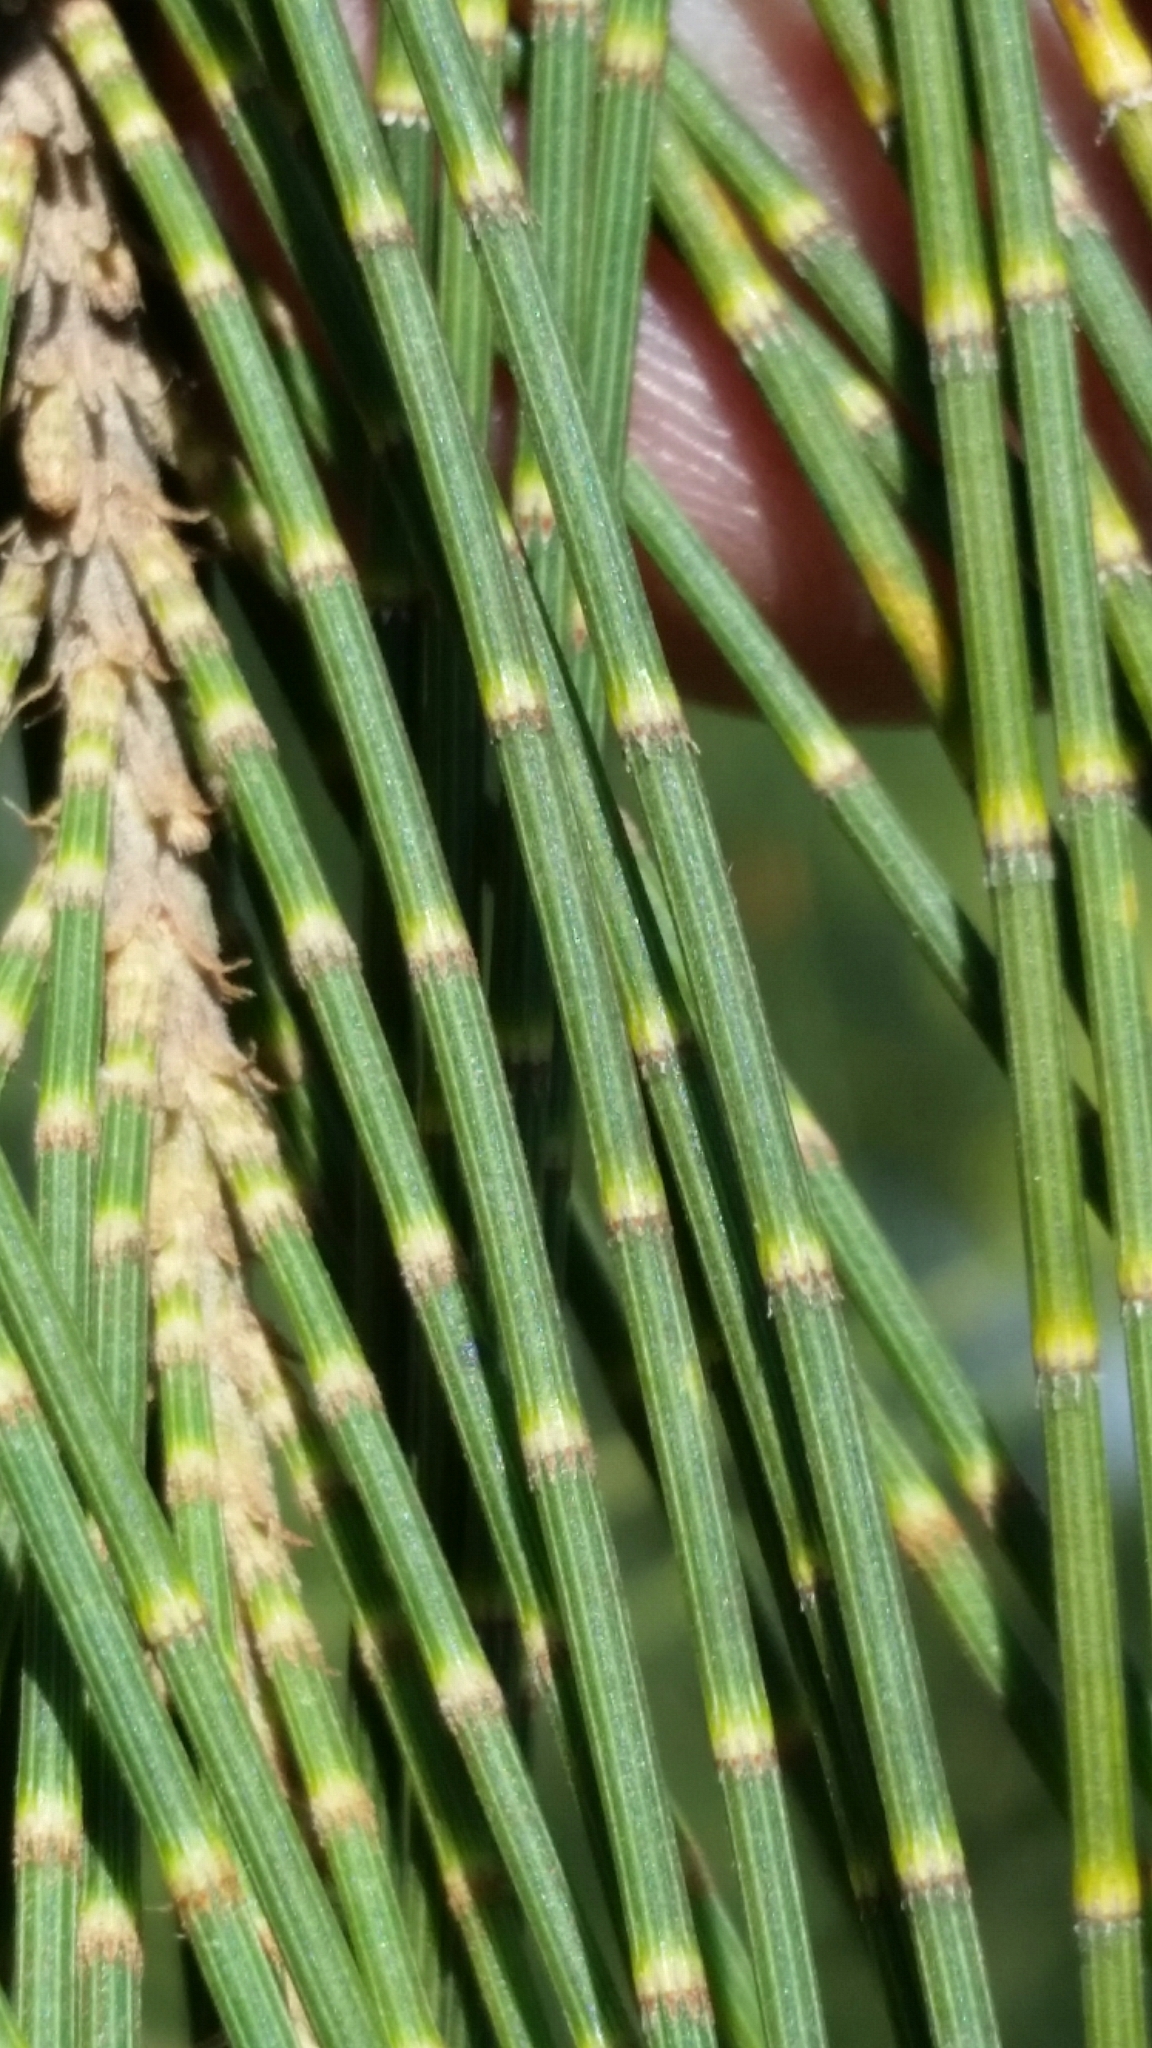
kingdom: Plantae
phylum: Tracheophyta
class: Magnoliopsida
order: Fagales
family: Casuarinaceae
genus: Casuarina
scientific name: Casuarina cunninghamiana
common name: River sheoak
